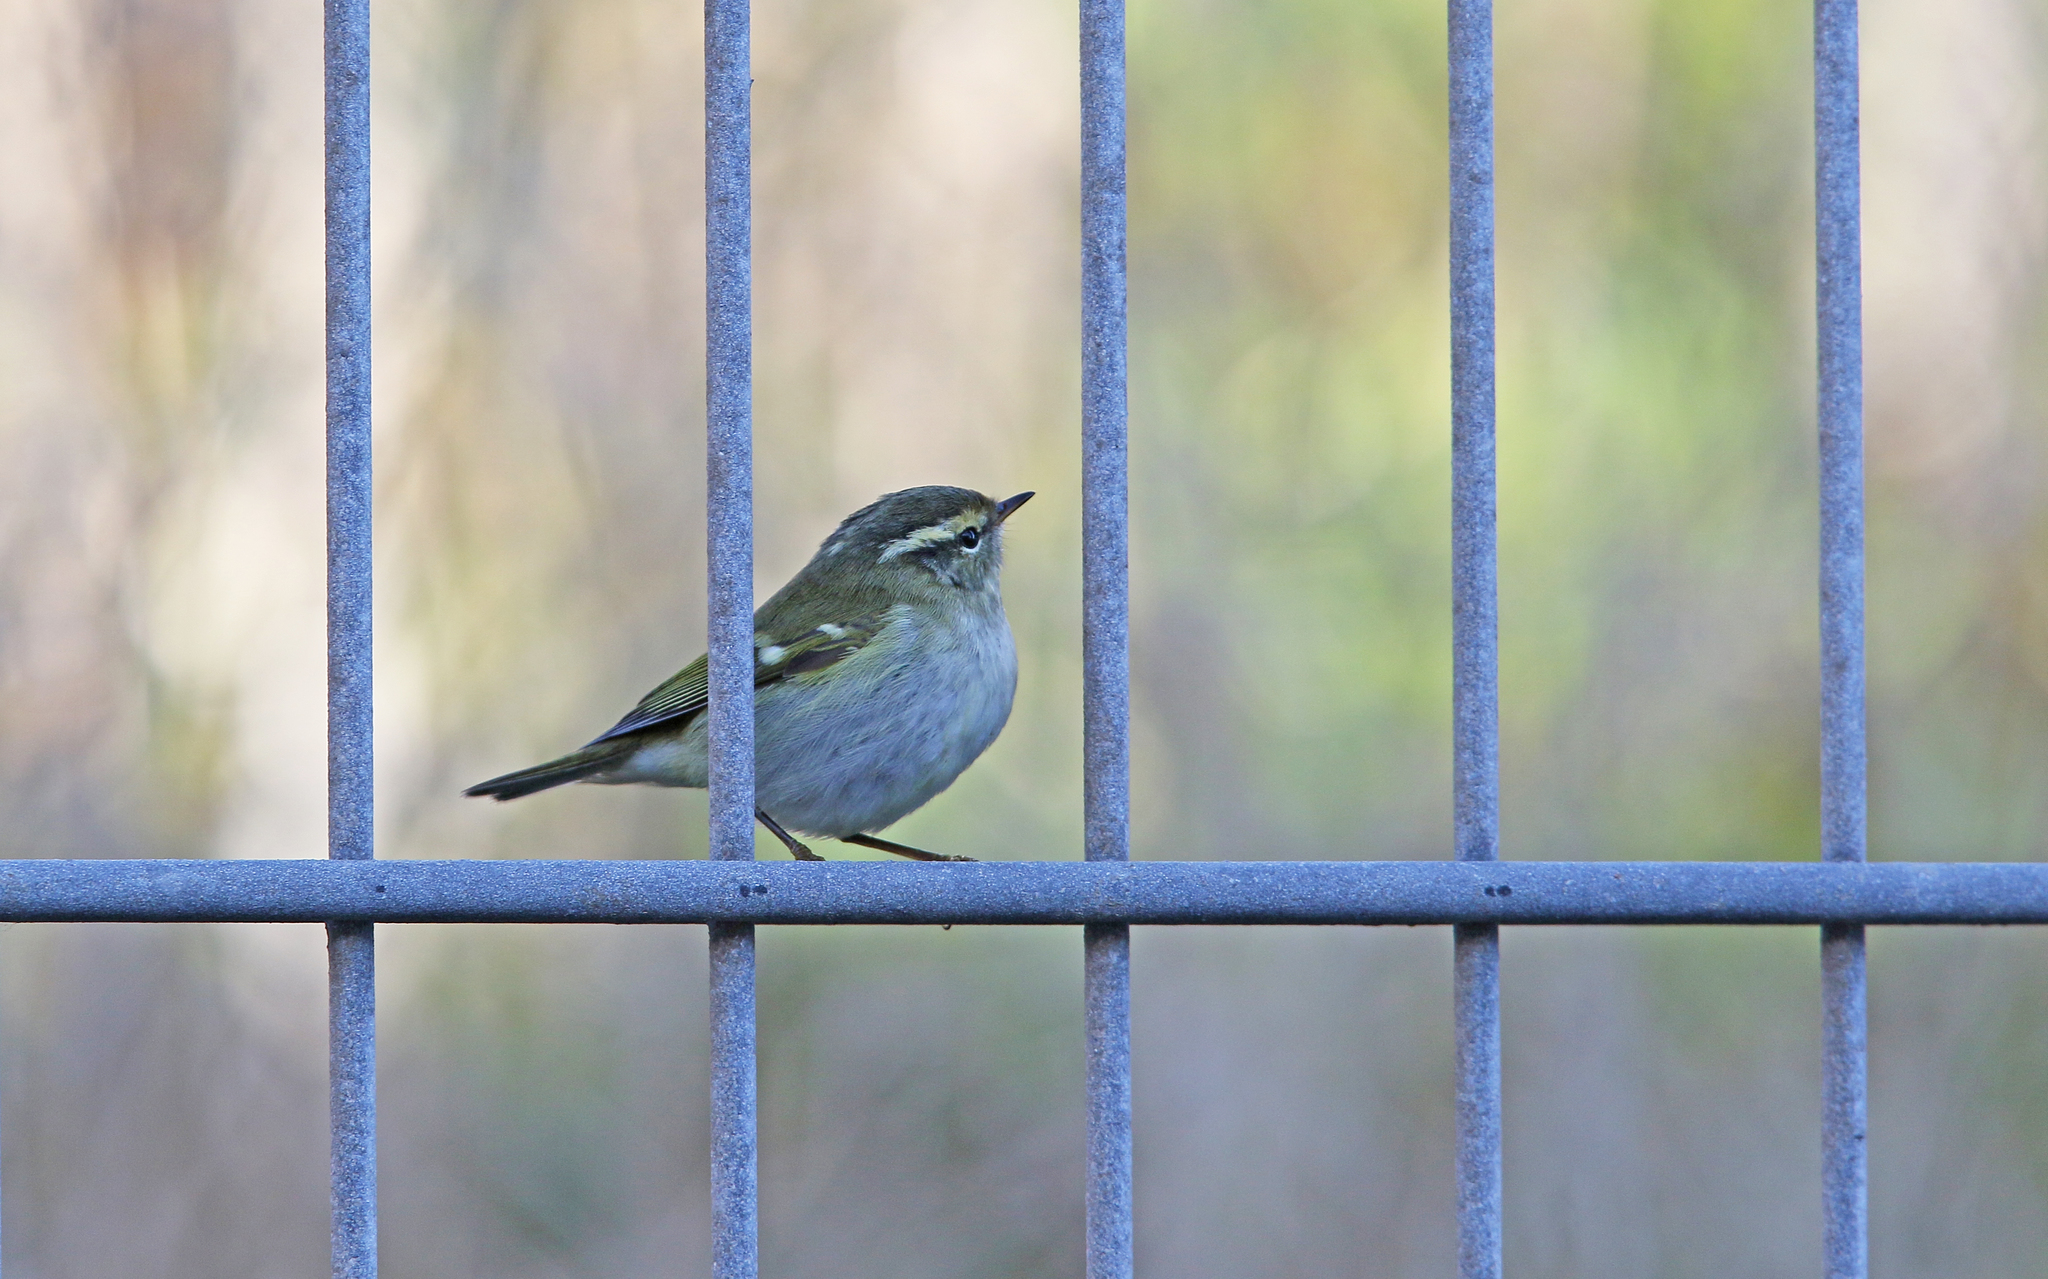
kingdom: Animalia
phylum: Chordata
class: Aves
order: Passeriformes
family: Phylloscopidae
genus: Phylloscopus
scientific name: Phylloscopus inornatus
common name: Yellow-browed warbler
